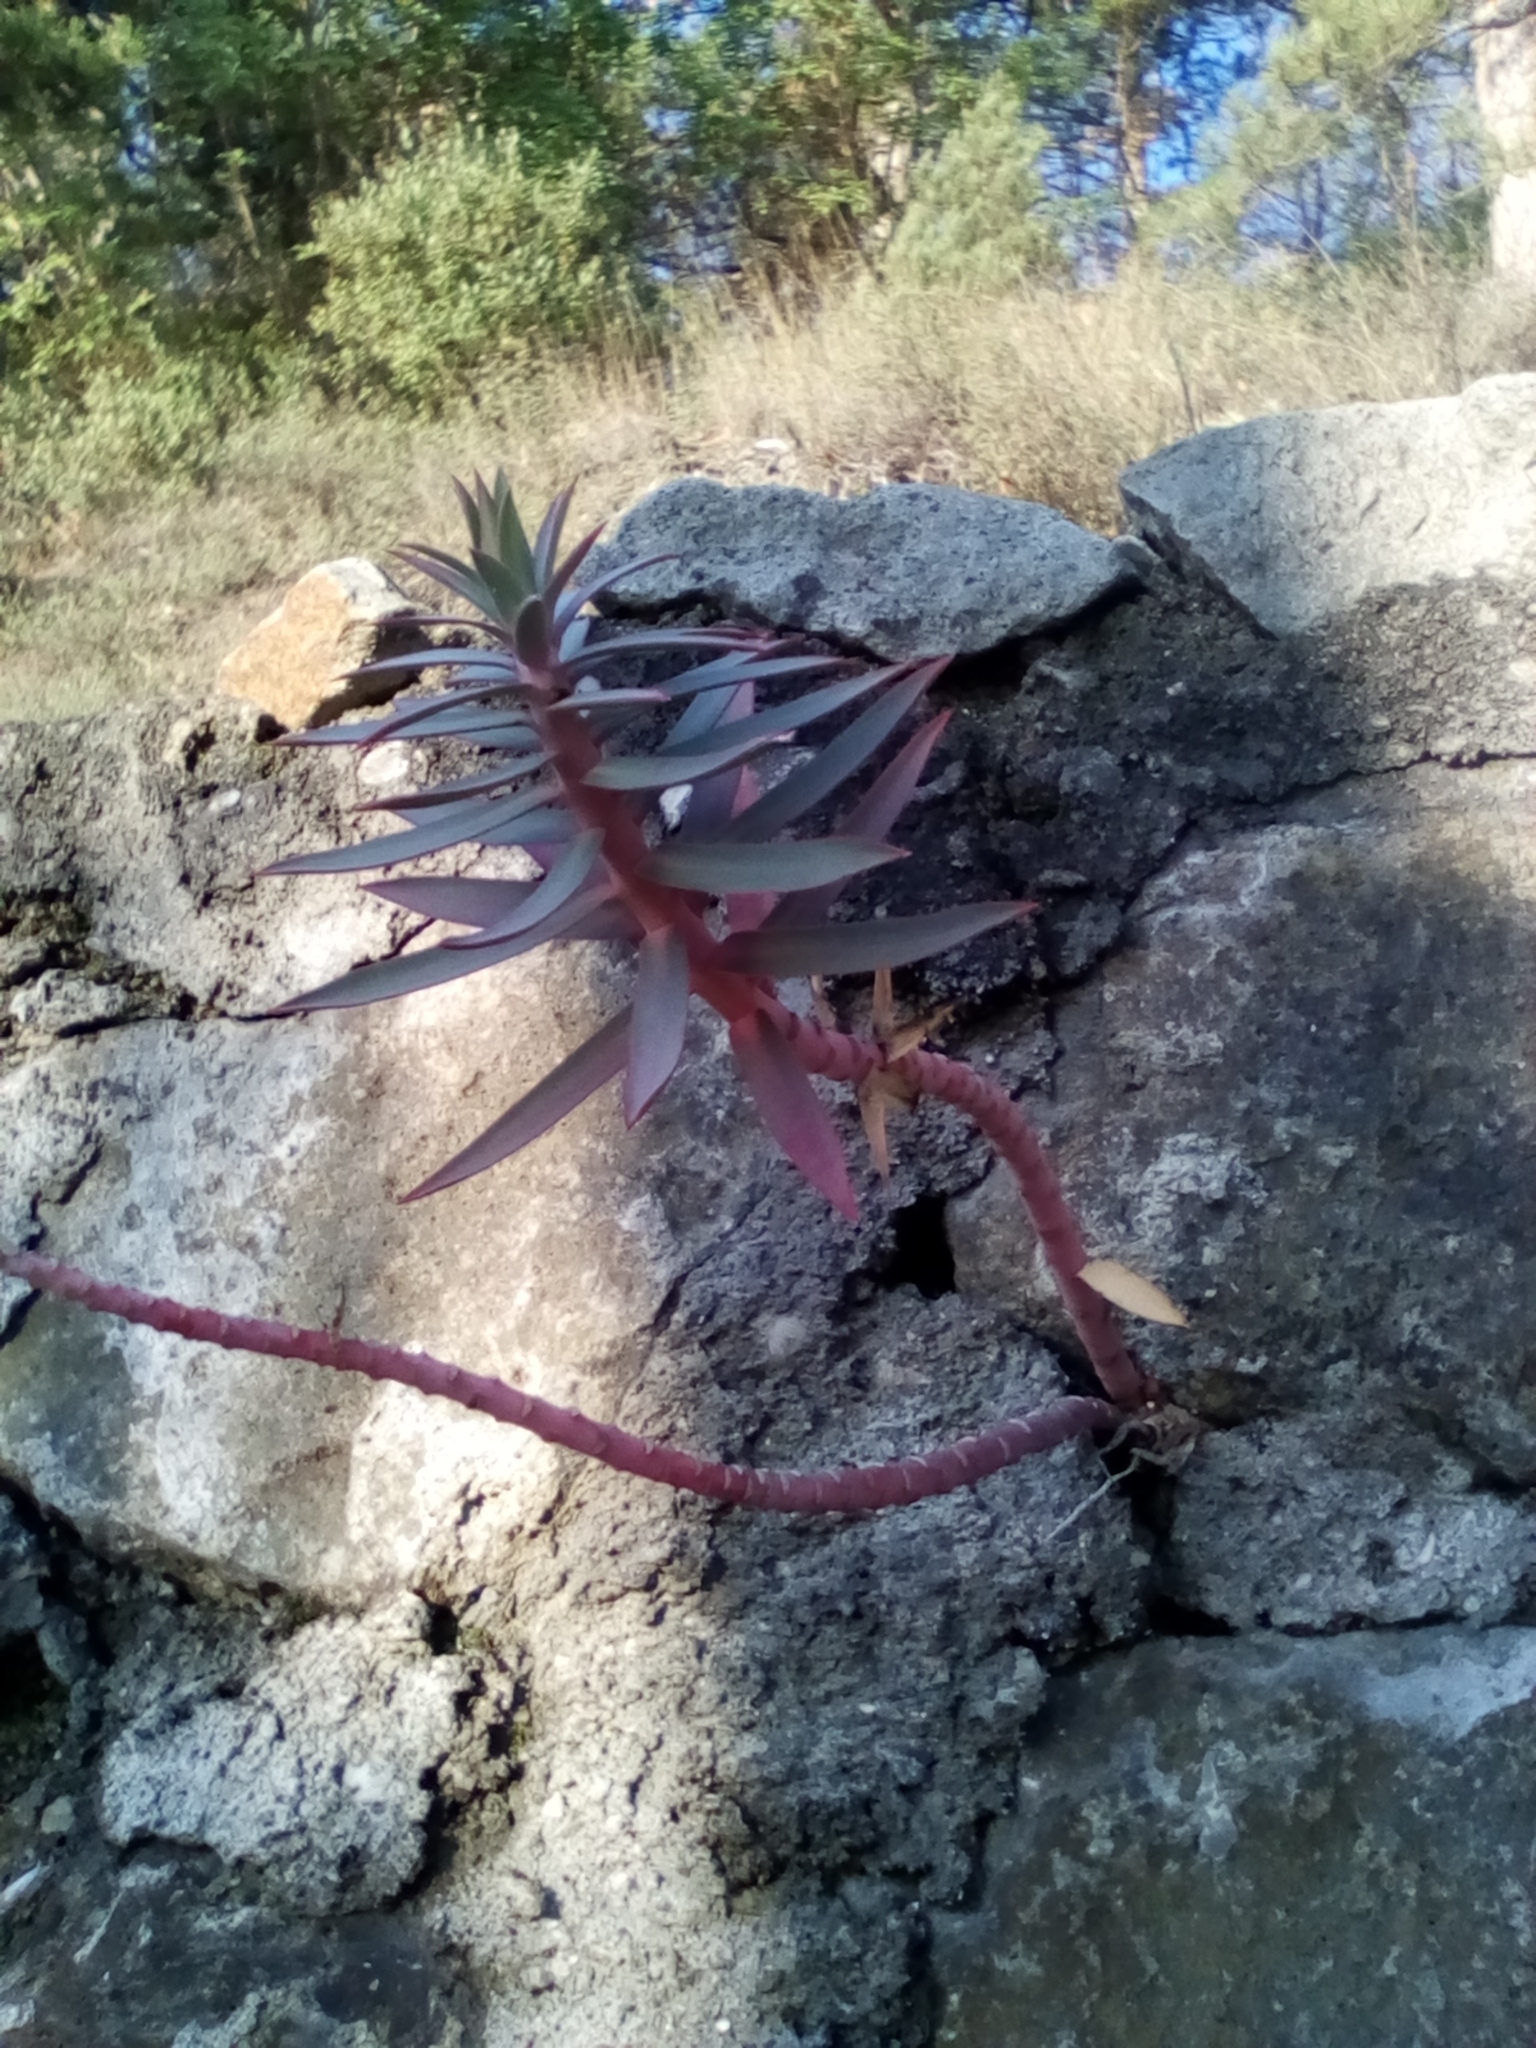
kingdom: Plantae
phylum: Tracheophyta
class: Magnoliopsida
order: Malpighiales
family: Euphorbiaceae
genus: Euphorbia
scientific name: Euphorbia rigida
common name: Upright myrtle spurge
